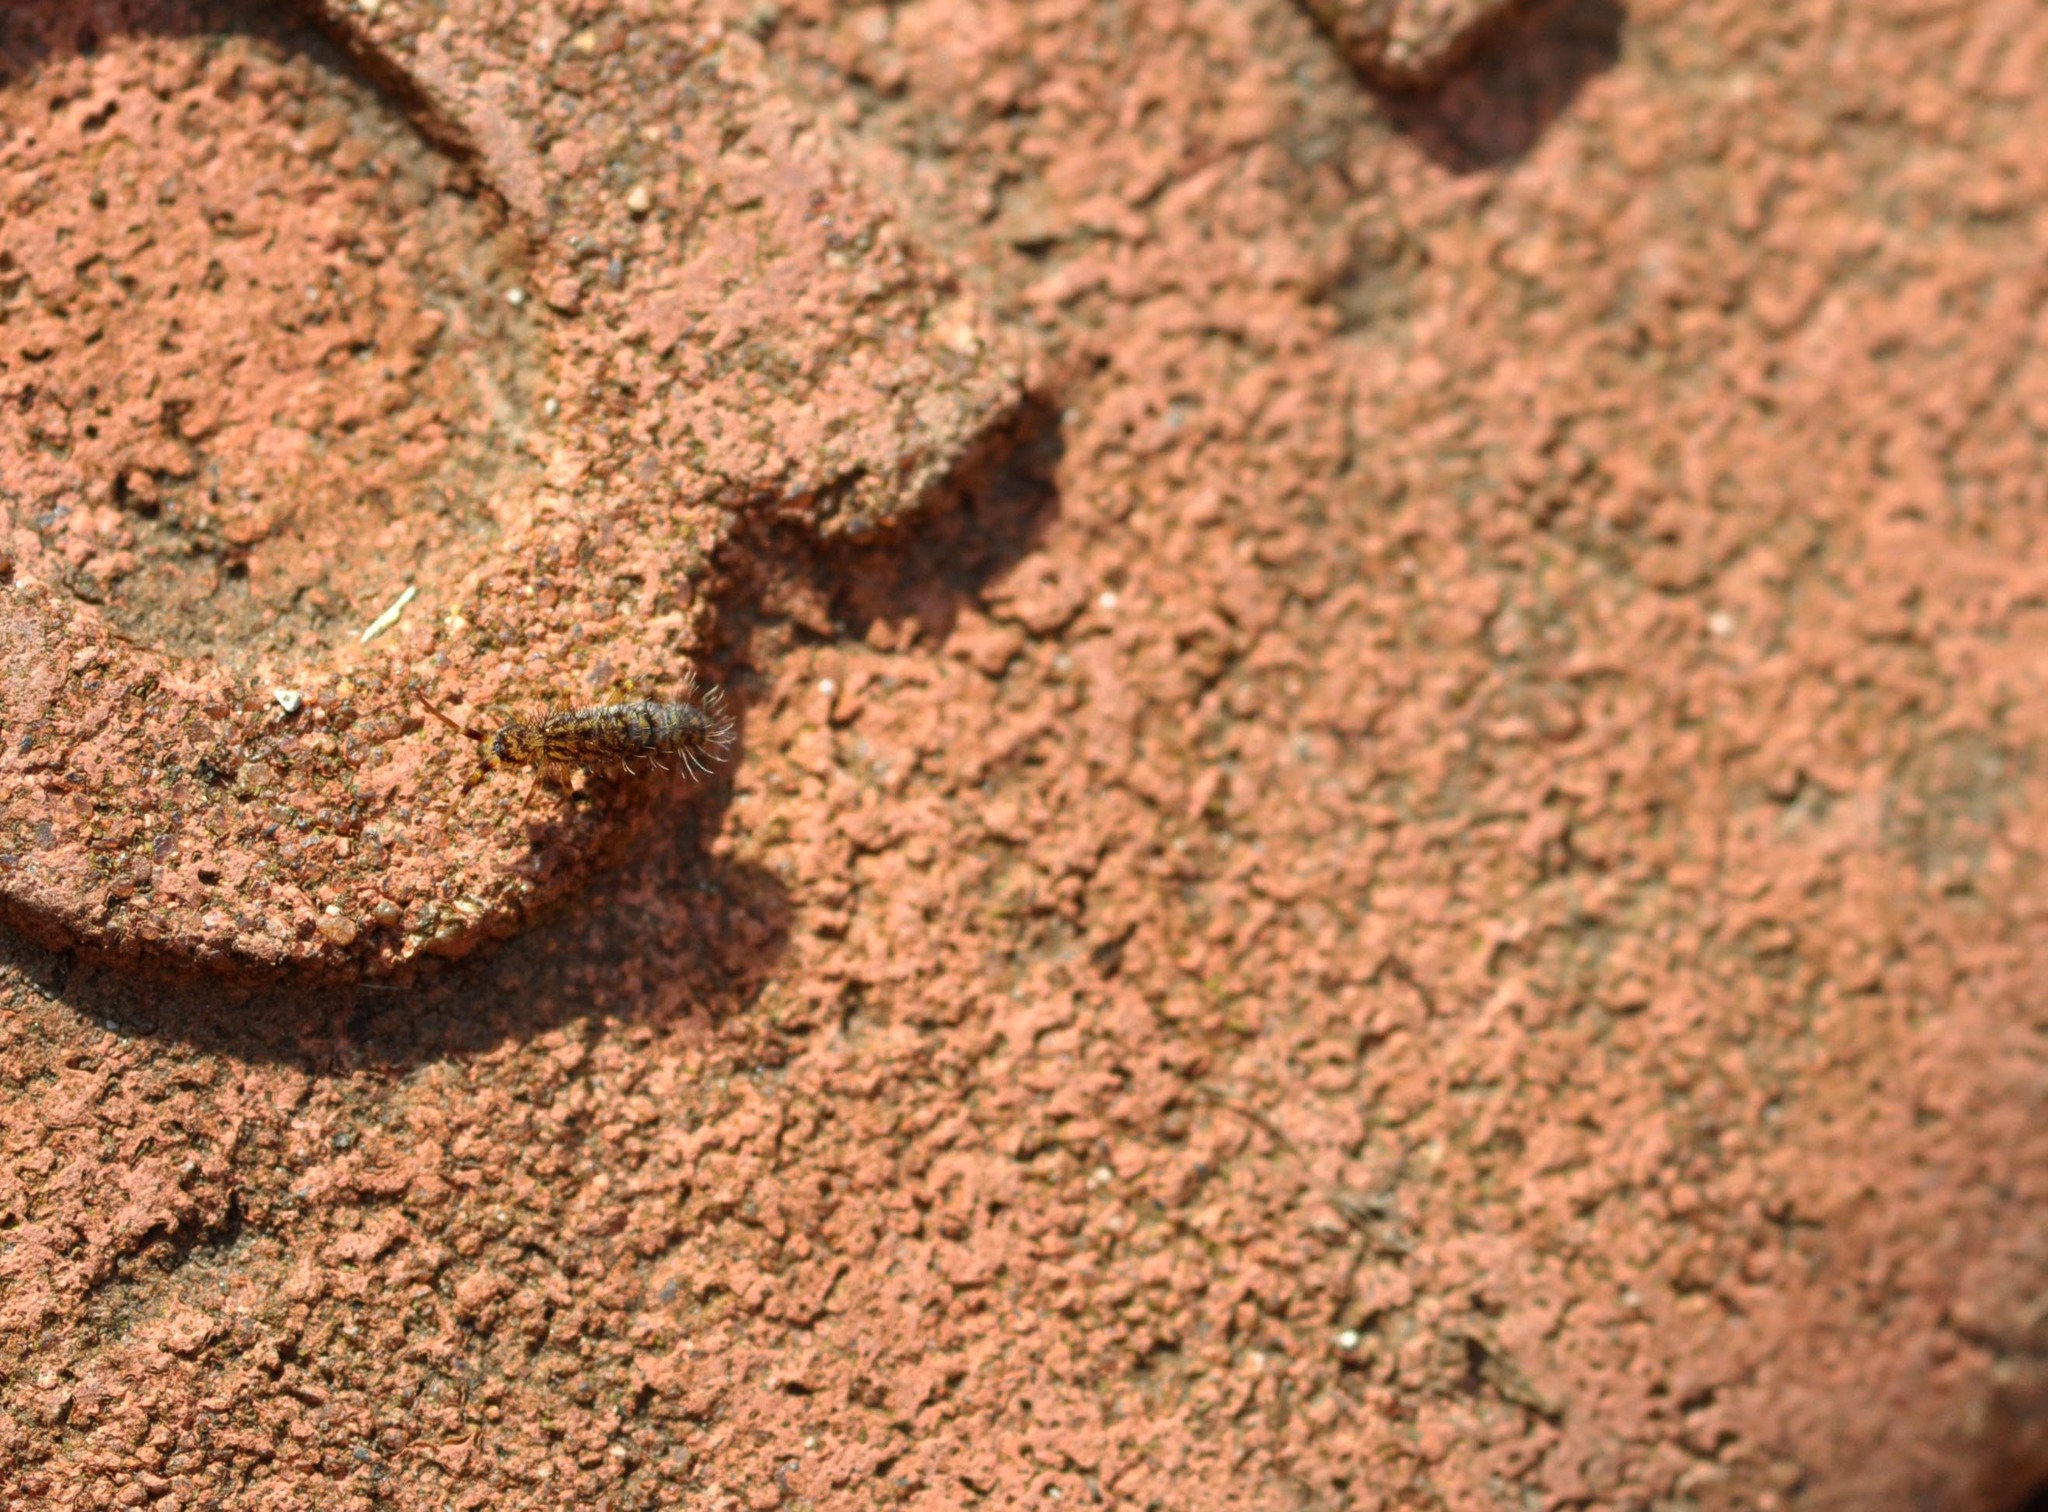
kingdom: Animalia
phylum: Arthropoda
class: Collembola
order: Entomobryomorpha
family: Orchesellidae
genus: Orchesella
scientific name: Orchesella villosa
